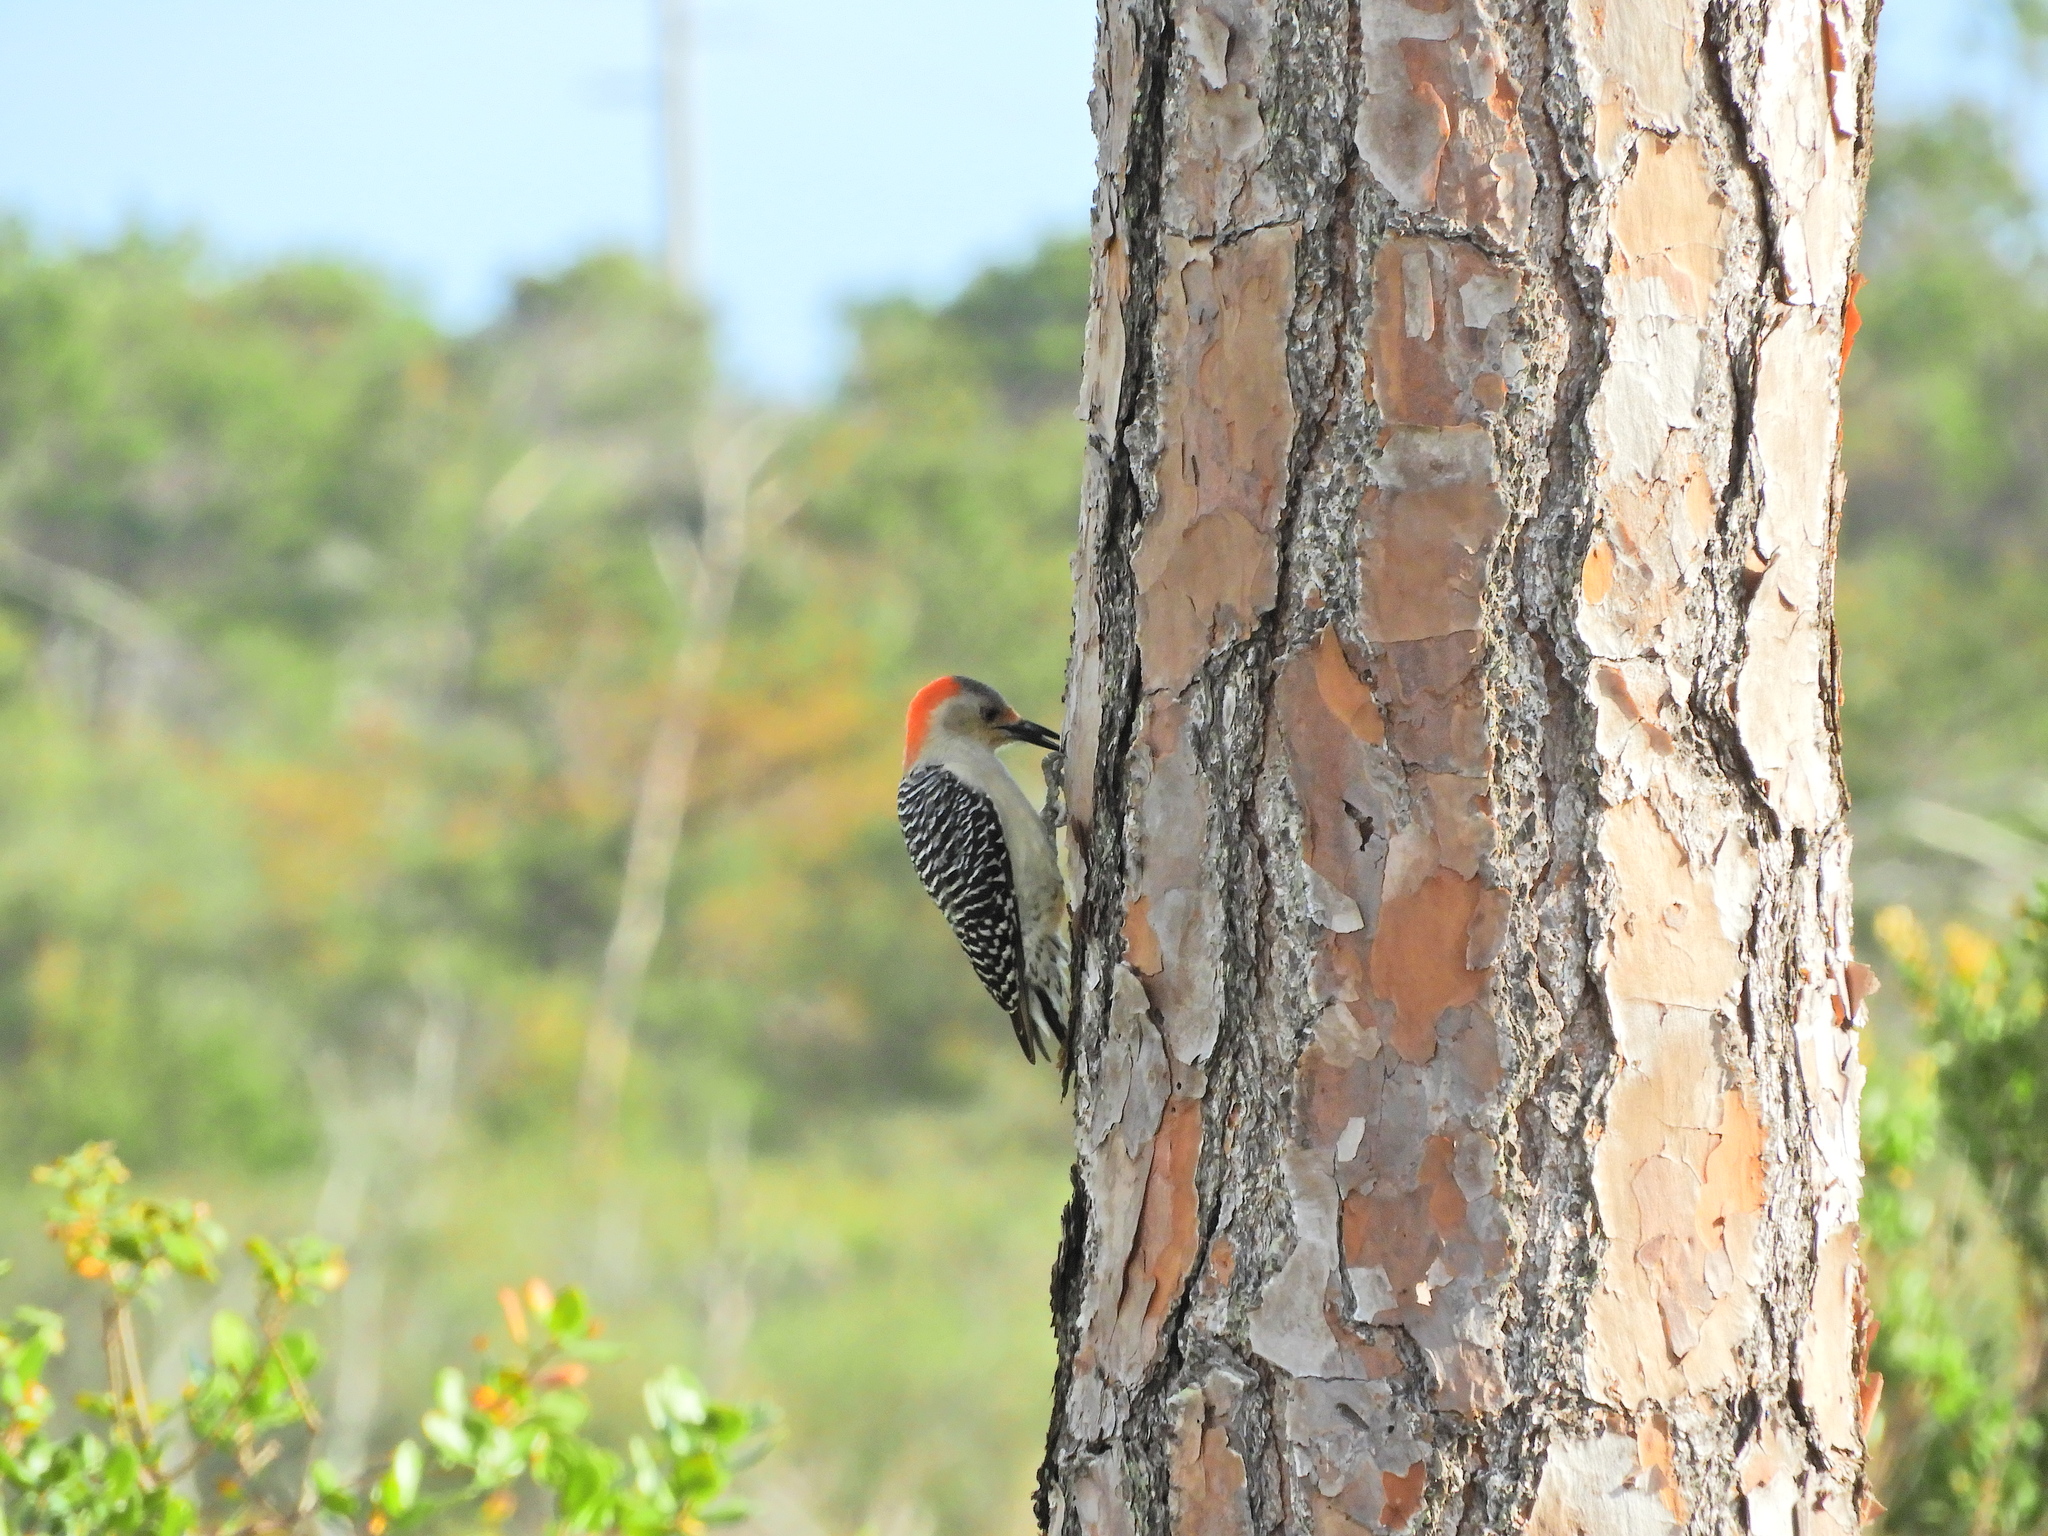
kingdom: Animalia
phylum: Chordata
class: Aves
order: Piciformes
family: Picidae
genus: Melanerpes
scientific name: Melanerpes carolinus
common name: Red-bellied woodpecker
